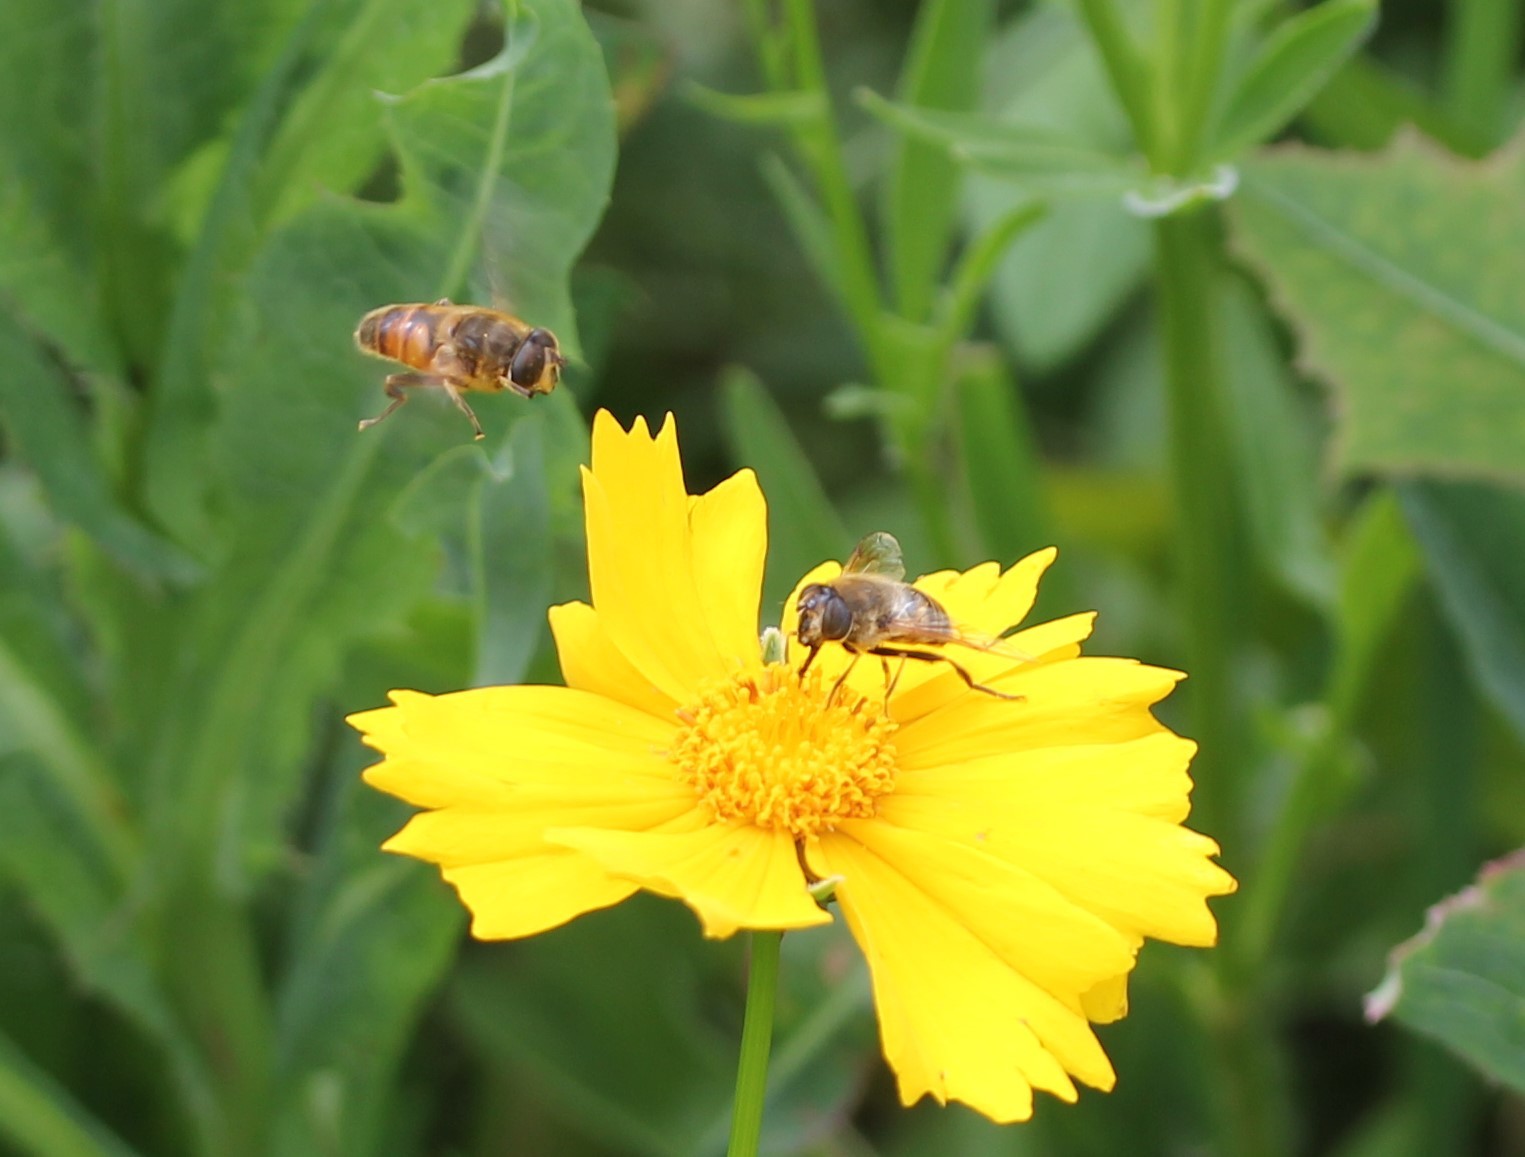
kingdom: Animalia
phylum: Arthropoda
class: Insecta
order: Diptera
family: Syrphidae
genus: Eristalis
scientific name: Eristalis tenax
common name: Drone fly
